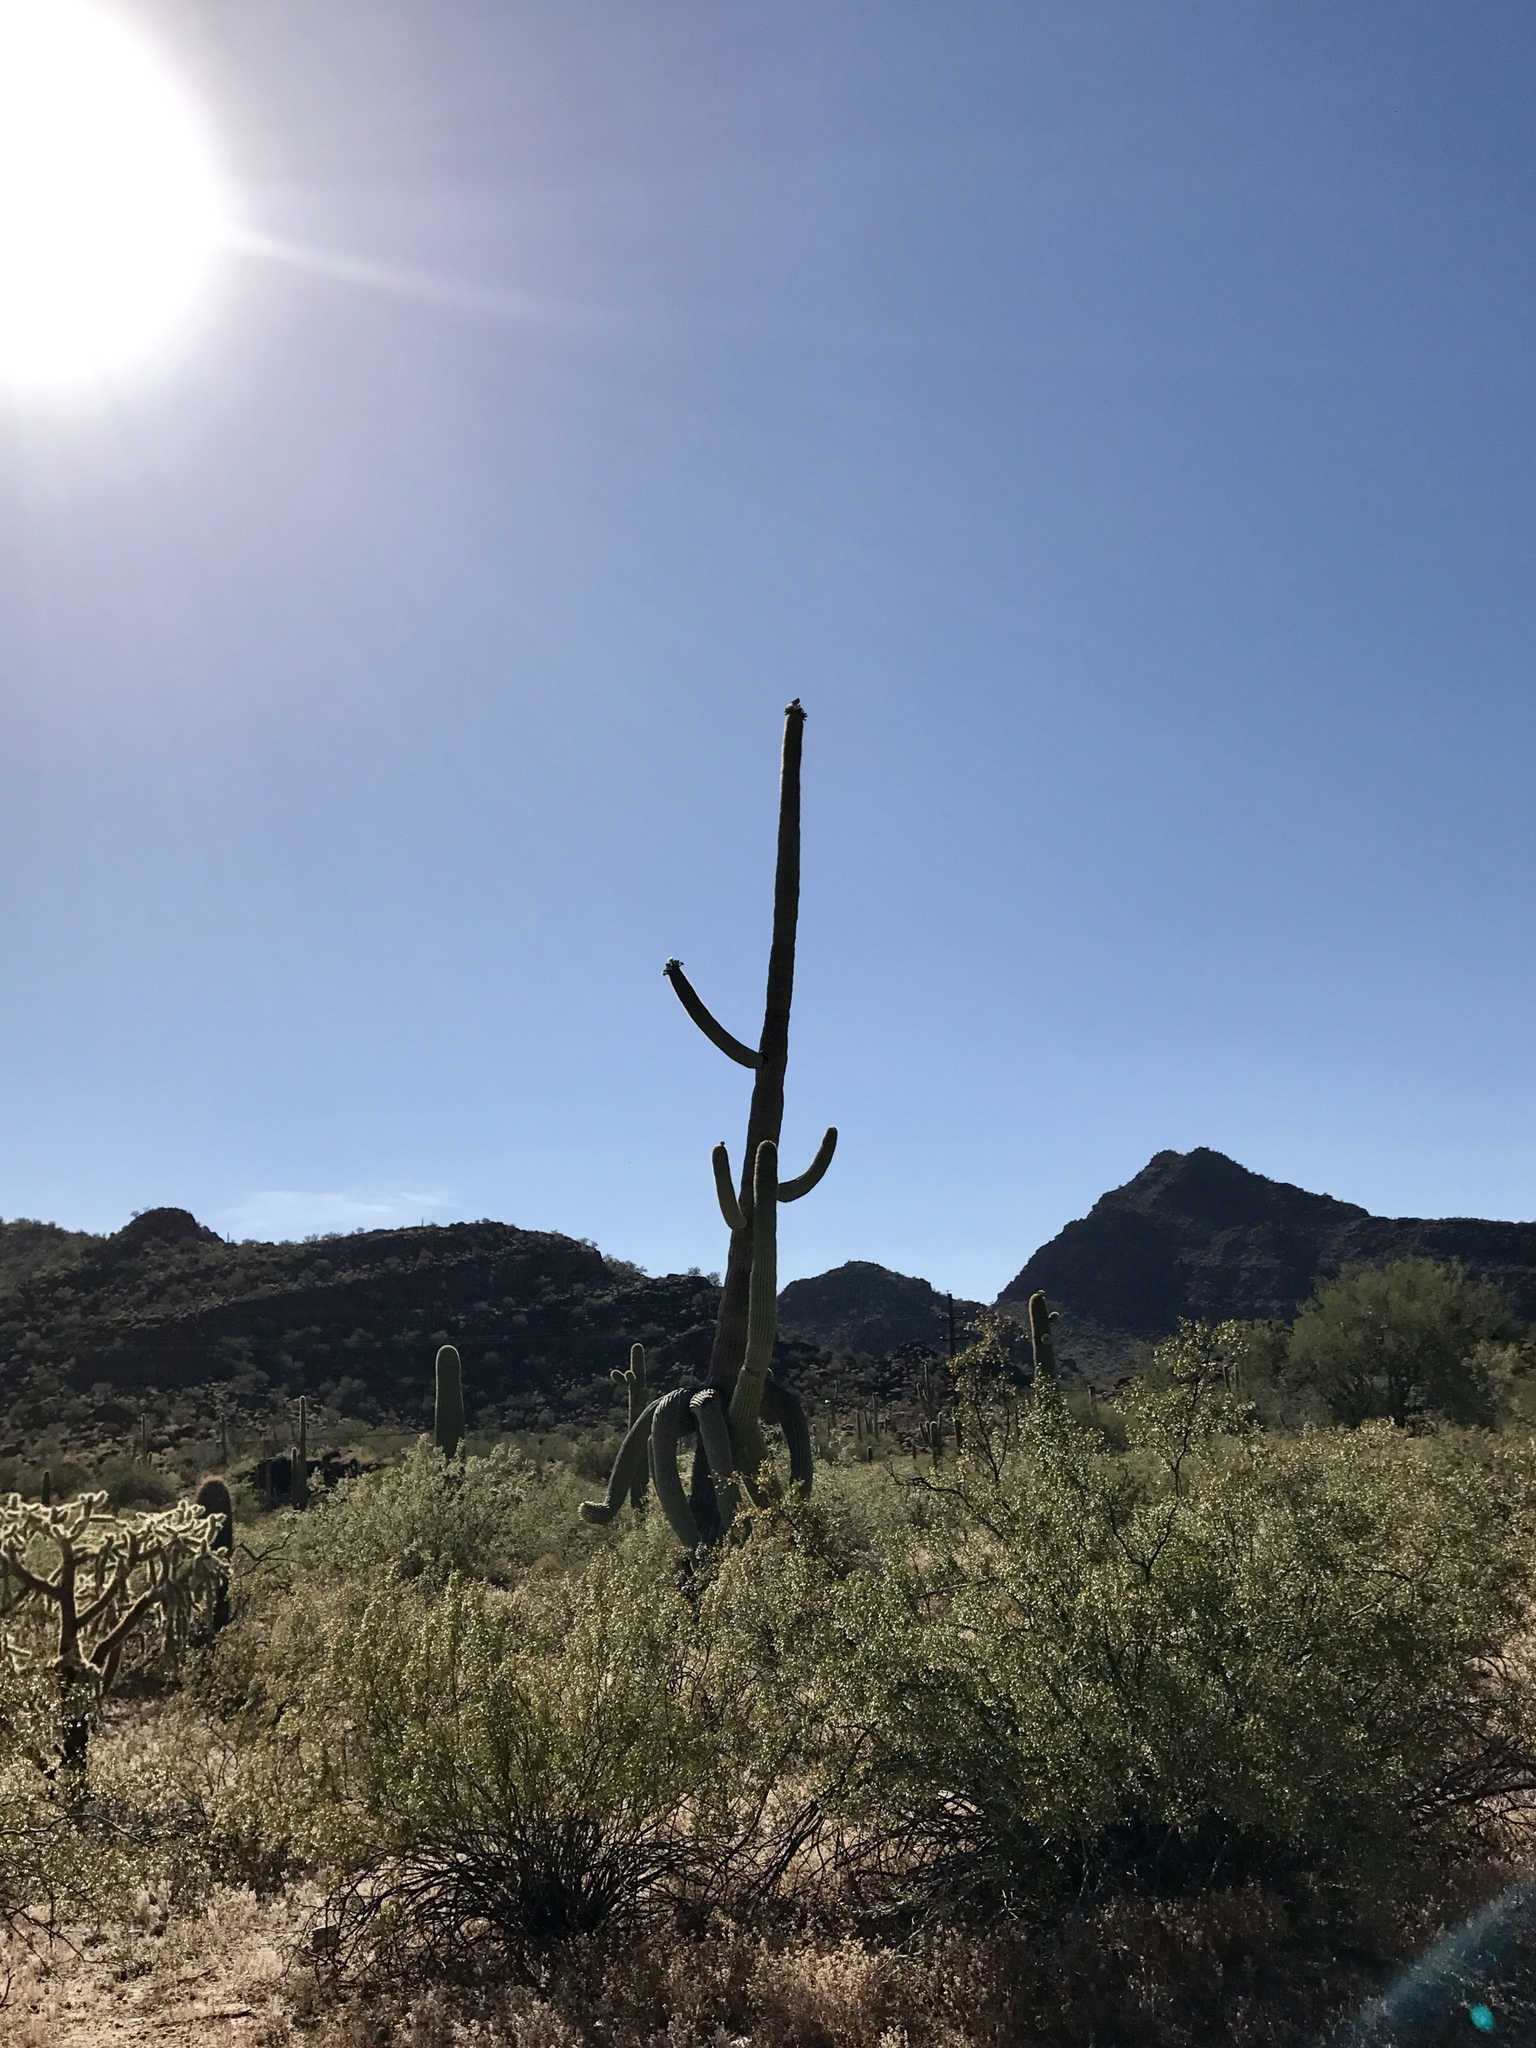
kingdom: Plantae
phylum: Tracheophyta
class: Magnoliopsida
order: Caryophyllales
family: Cactaceae
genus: Carnegiea
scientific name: Carnegiea gigantea
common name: Saguaro
